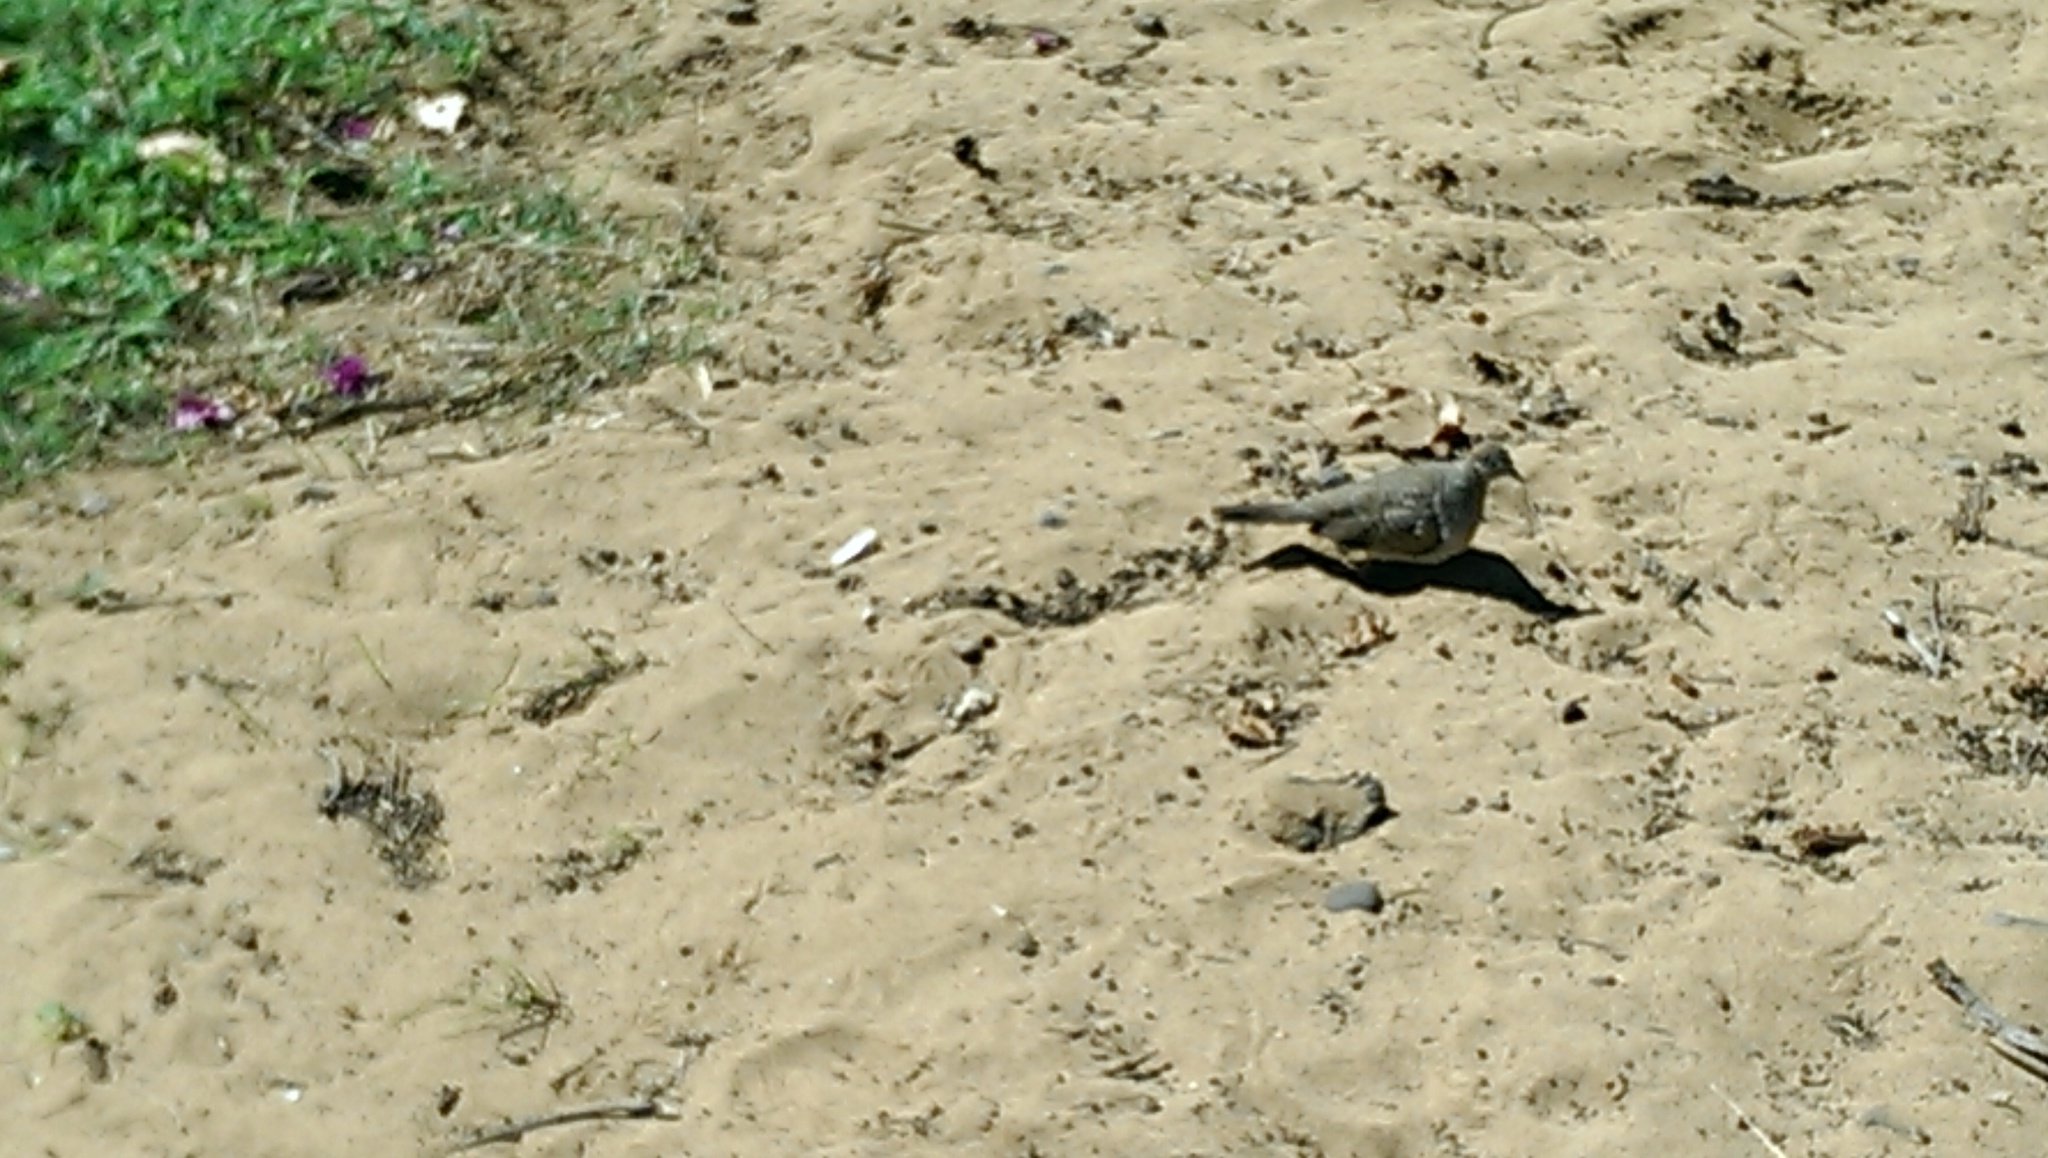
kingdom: Animalia
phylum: Chordata
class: Aves
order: Columbiformes
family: Columbidae
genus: Geopelia
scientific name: Geopelia striata
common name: Zebra dove
